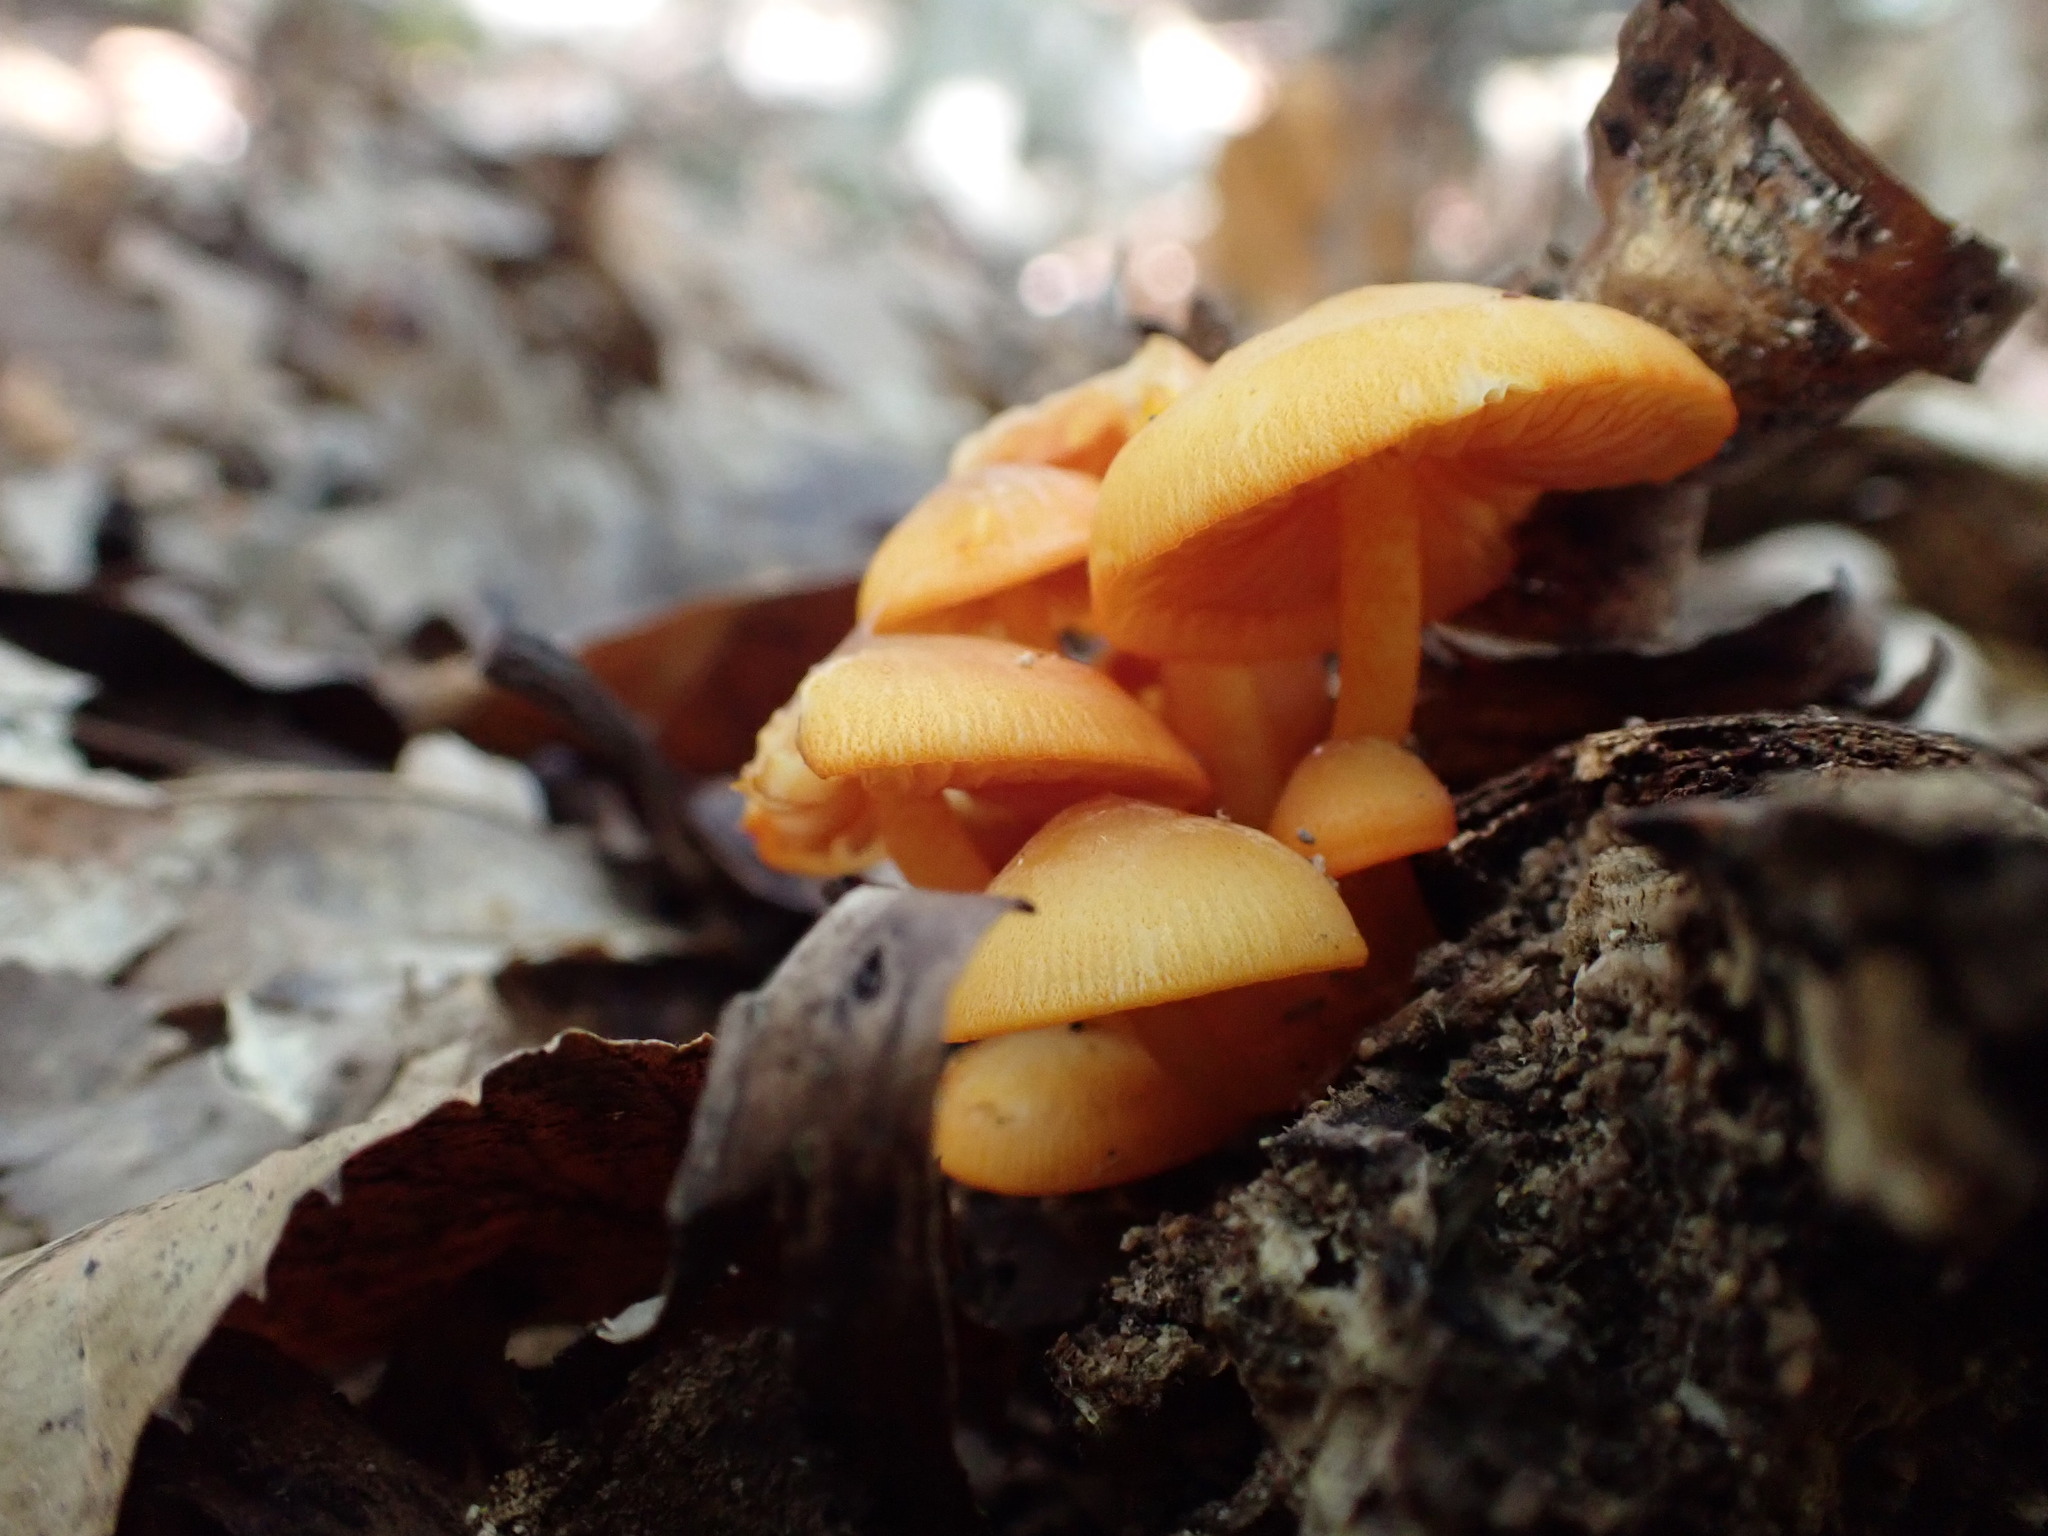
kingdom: Fungi
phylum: Basidiomycota
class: Agaricomycetes
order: Agaricales
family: Mycenaceae
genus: Mycena
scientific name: Mycena leaiana
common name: Orange mycena
